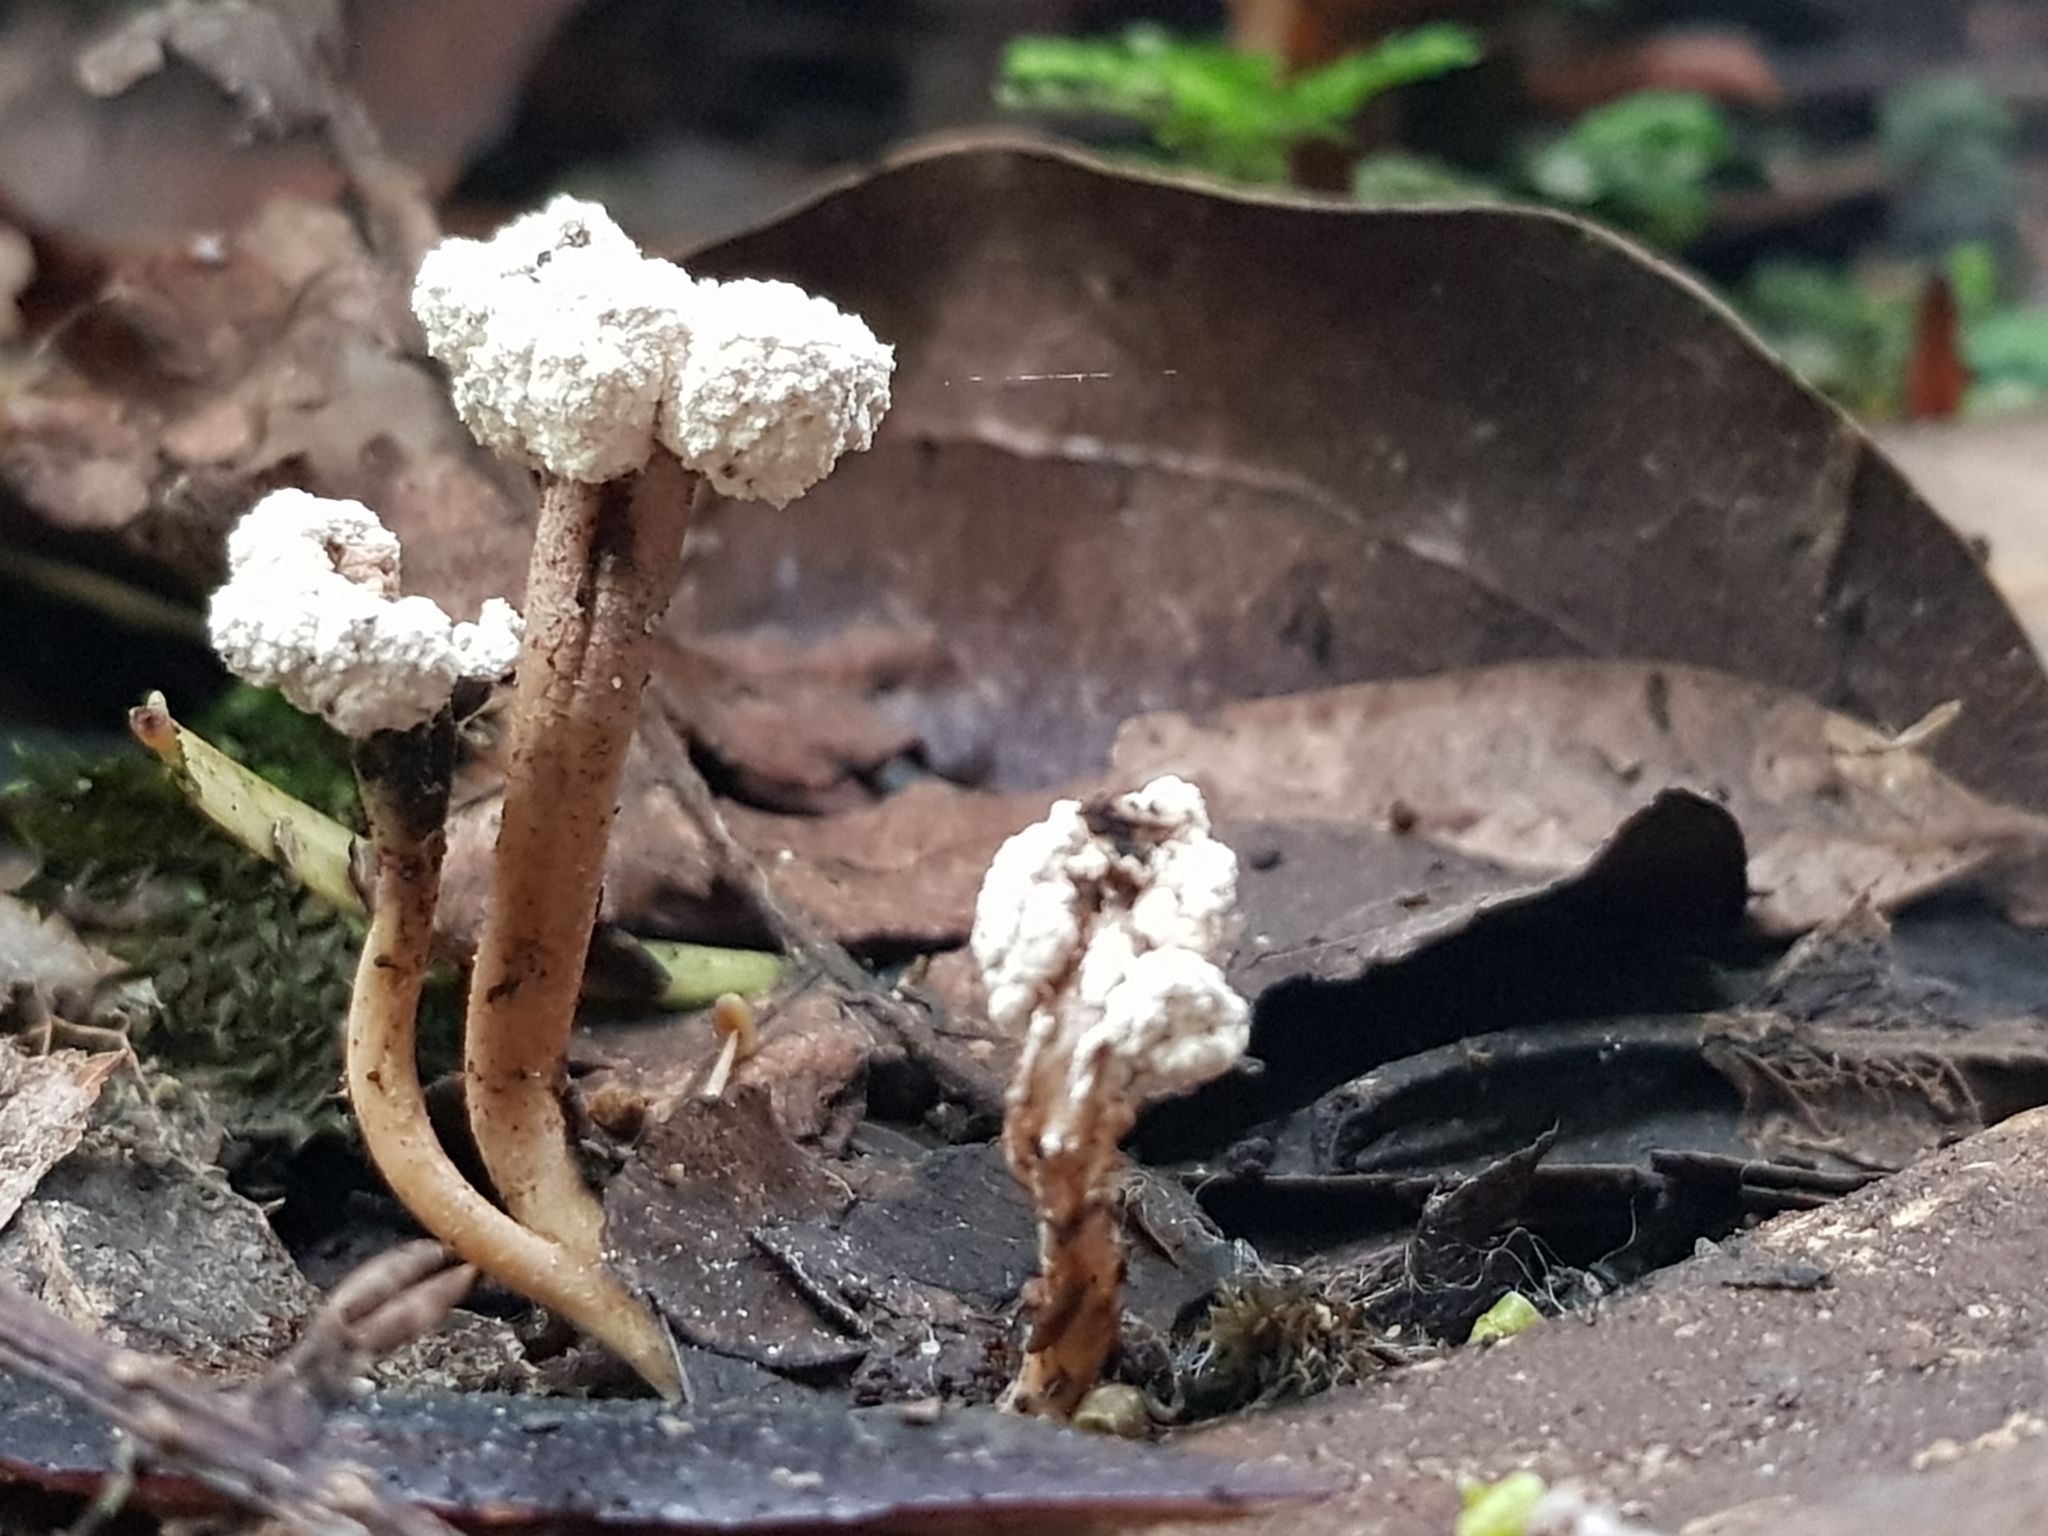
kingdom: Fungi
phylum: Ascomycota
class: Sordariomycetes
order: Hypocreales
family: Cordycipitaceae
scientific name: Cordycipitaceae
